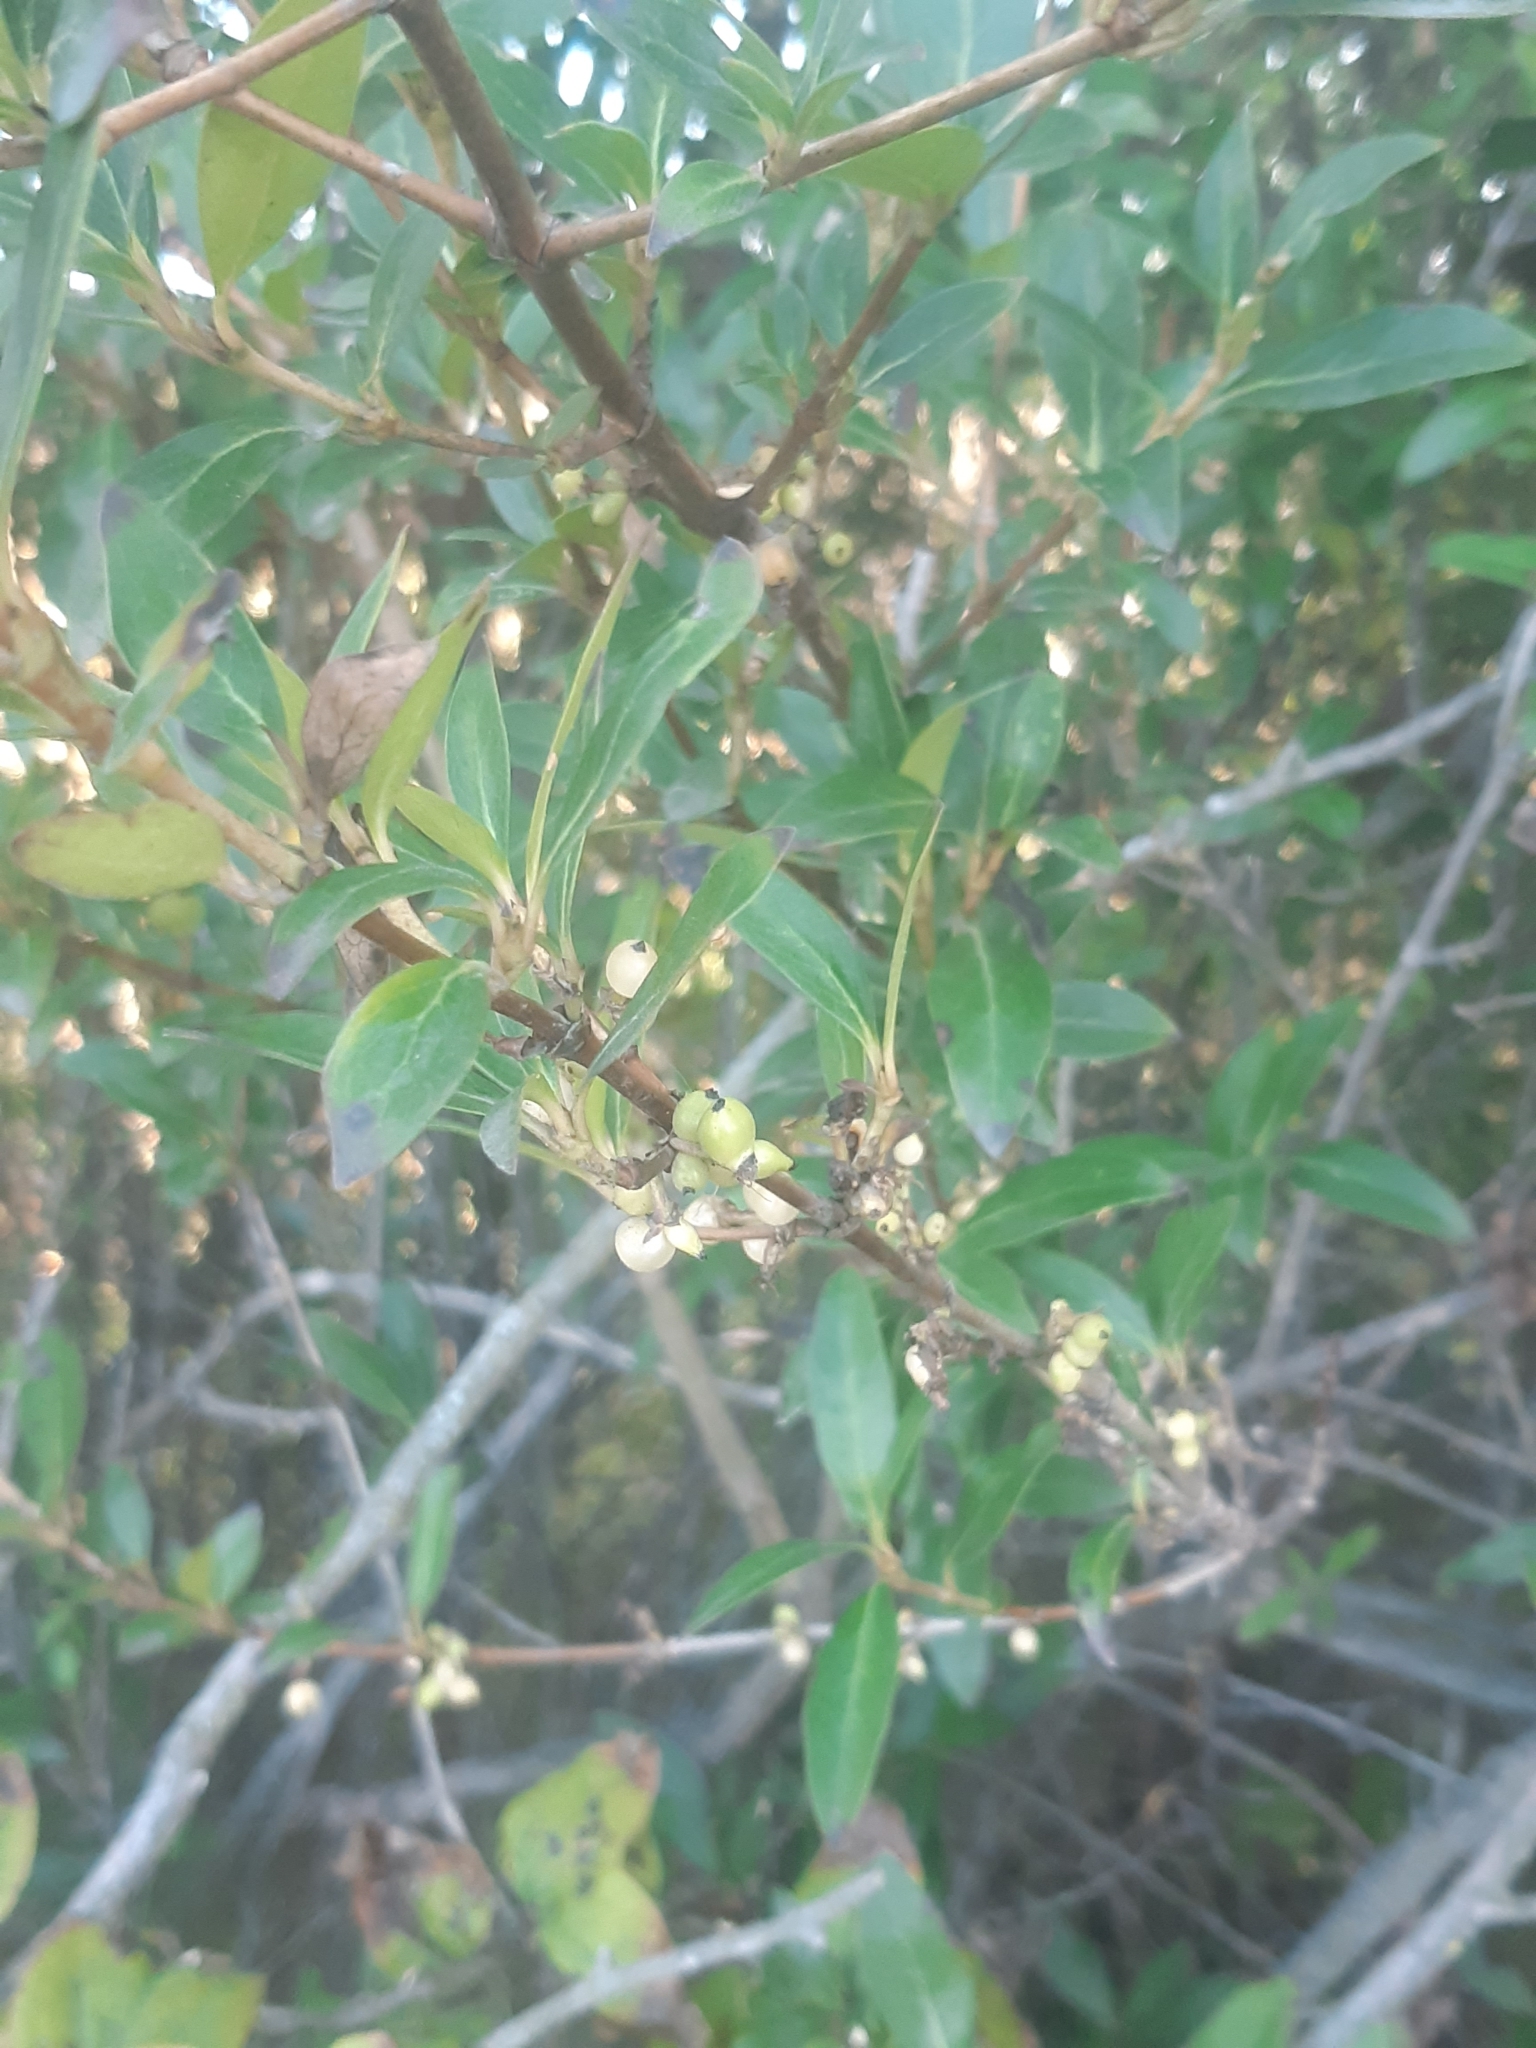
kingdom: Plantae
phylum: Tracheophyta
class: Magnoliopsida
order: Gentianales
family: Rubiaceae
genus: Coprosma
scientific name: Coprosma cunninghamii
